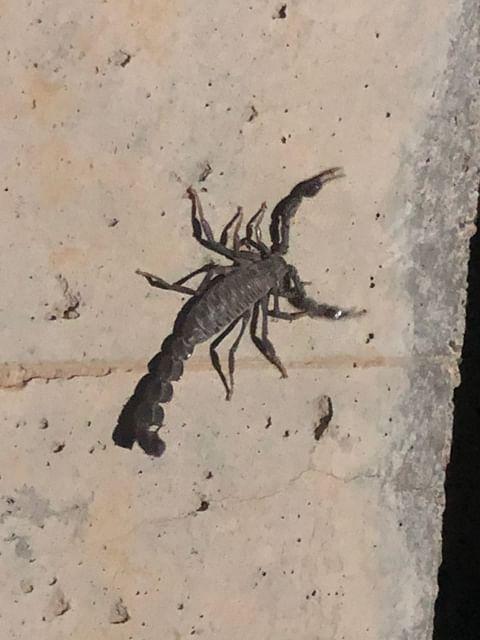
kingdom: Animalia
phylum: Arthropoda
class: Arachnida
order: Scorpiones
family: Buthidae
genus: Androctonus
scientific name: Androctonus crassicauda
